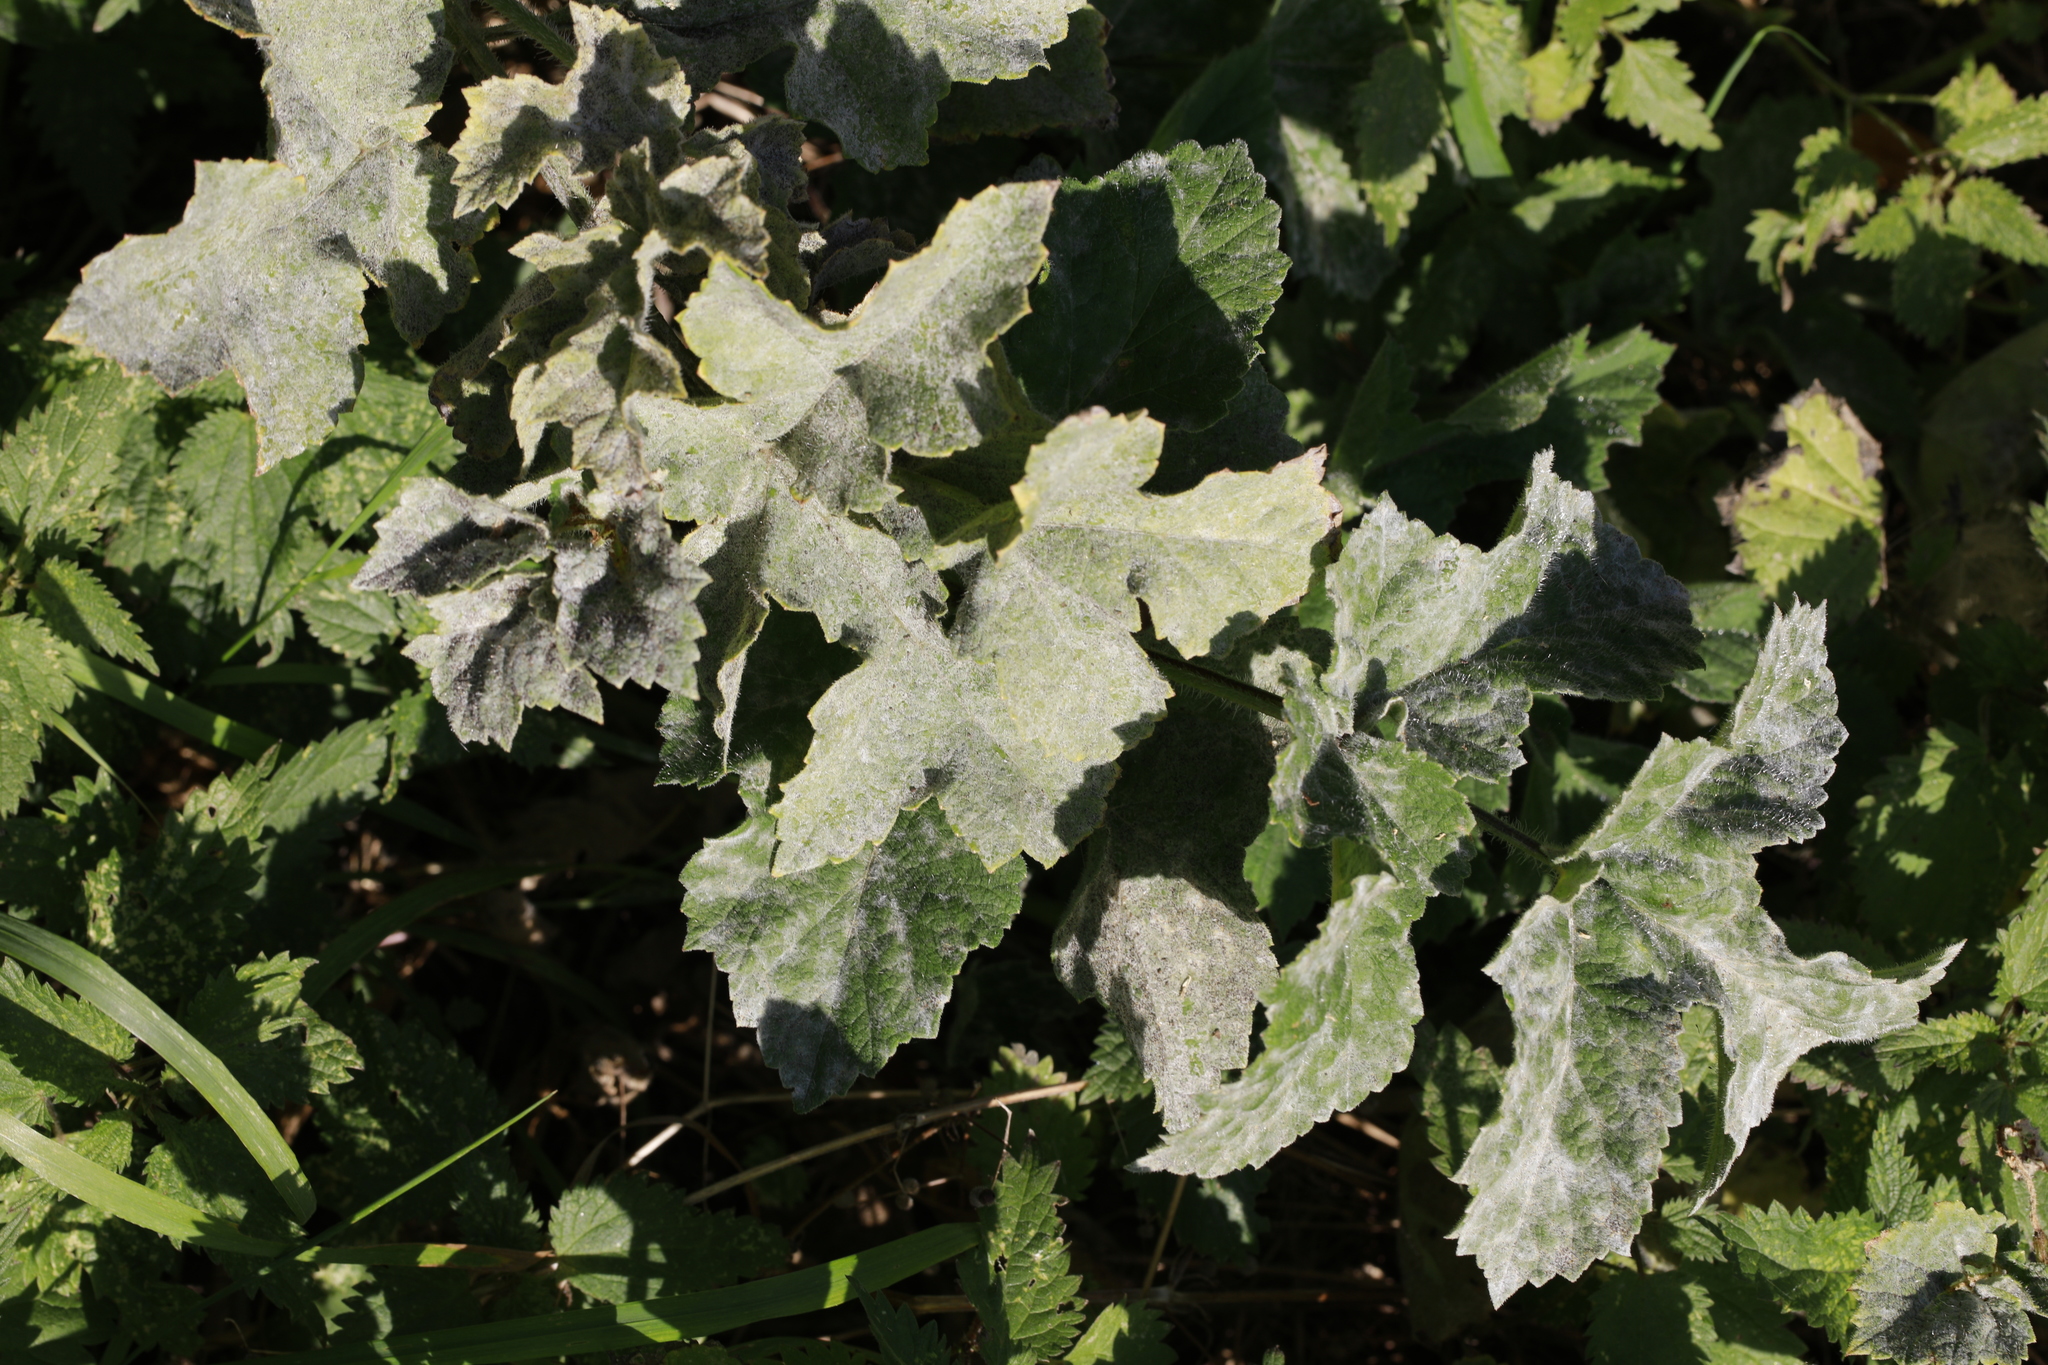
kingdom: Fungi
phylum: Ascomycota
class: Leotiomycetes
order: Helotiales
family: Erysiphaceae
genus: Erysiphe
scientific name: Erysiphe heraclei
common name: Umbellifer mildew
